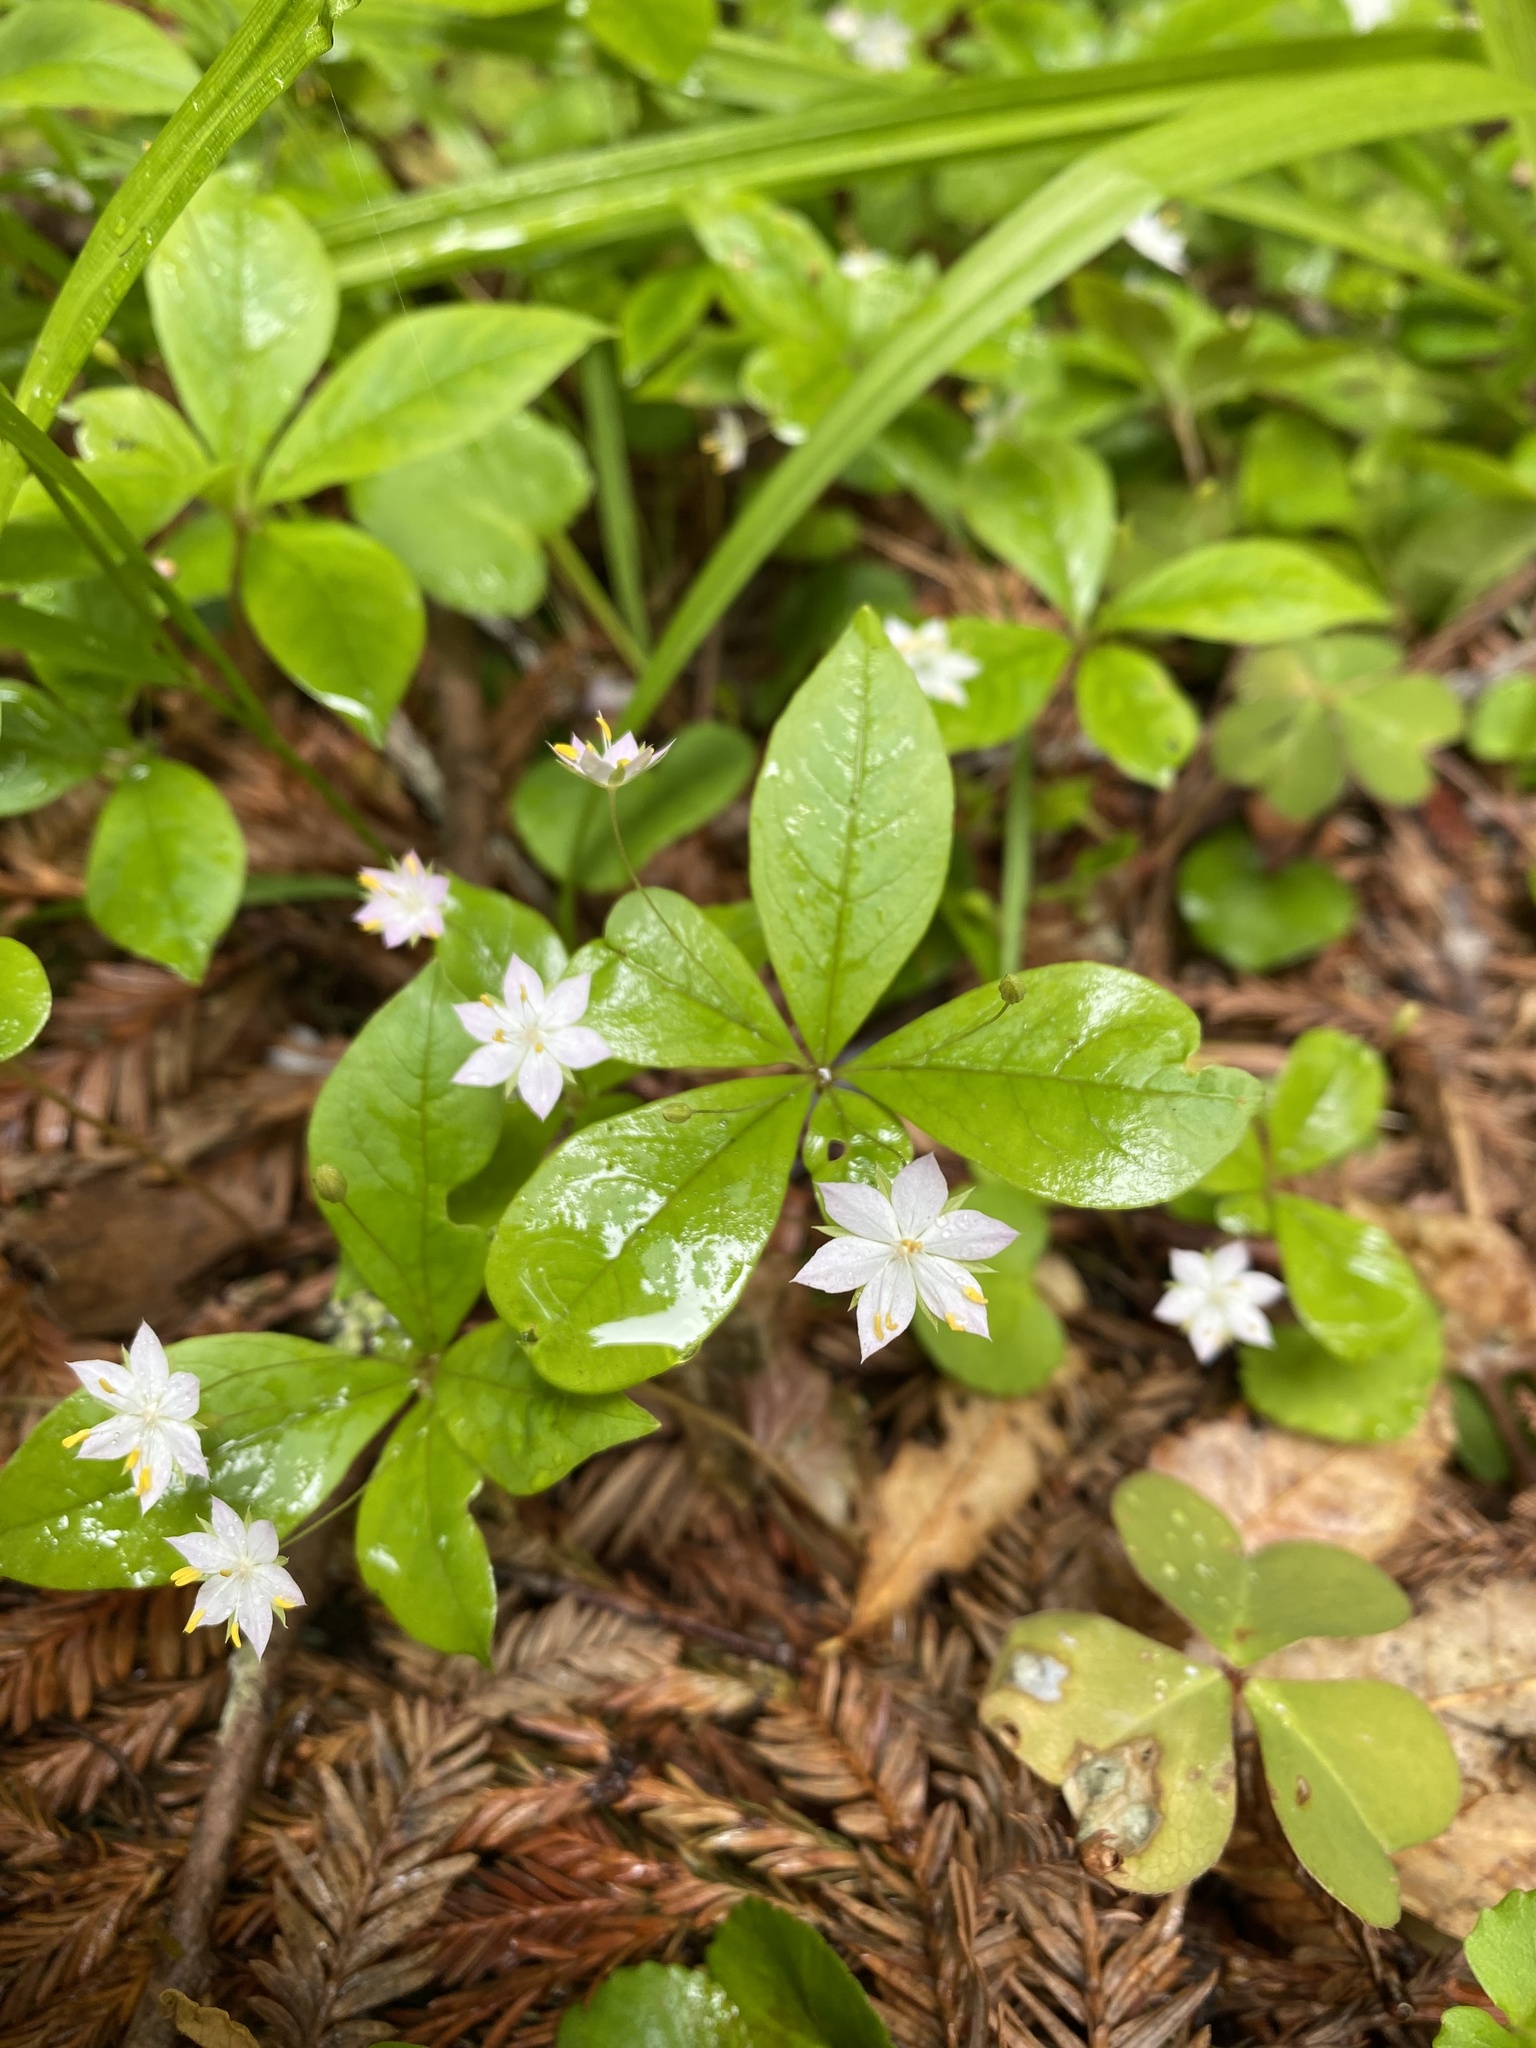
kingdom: Plantae
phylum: Tracheophyta
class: Magnoliopsida
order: Ericales
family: Primulaceae
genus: Lysimachia
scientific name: Lysimachia latifolia
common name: Pacific starflower
